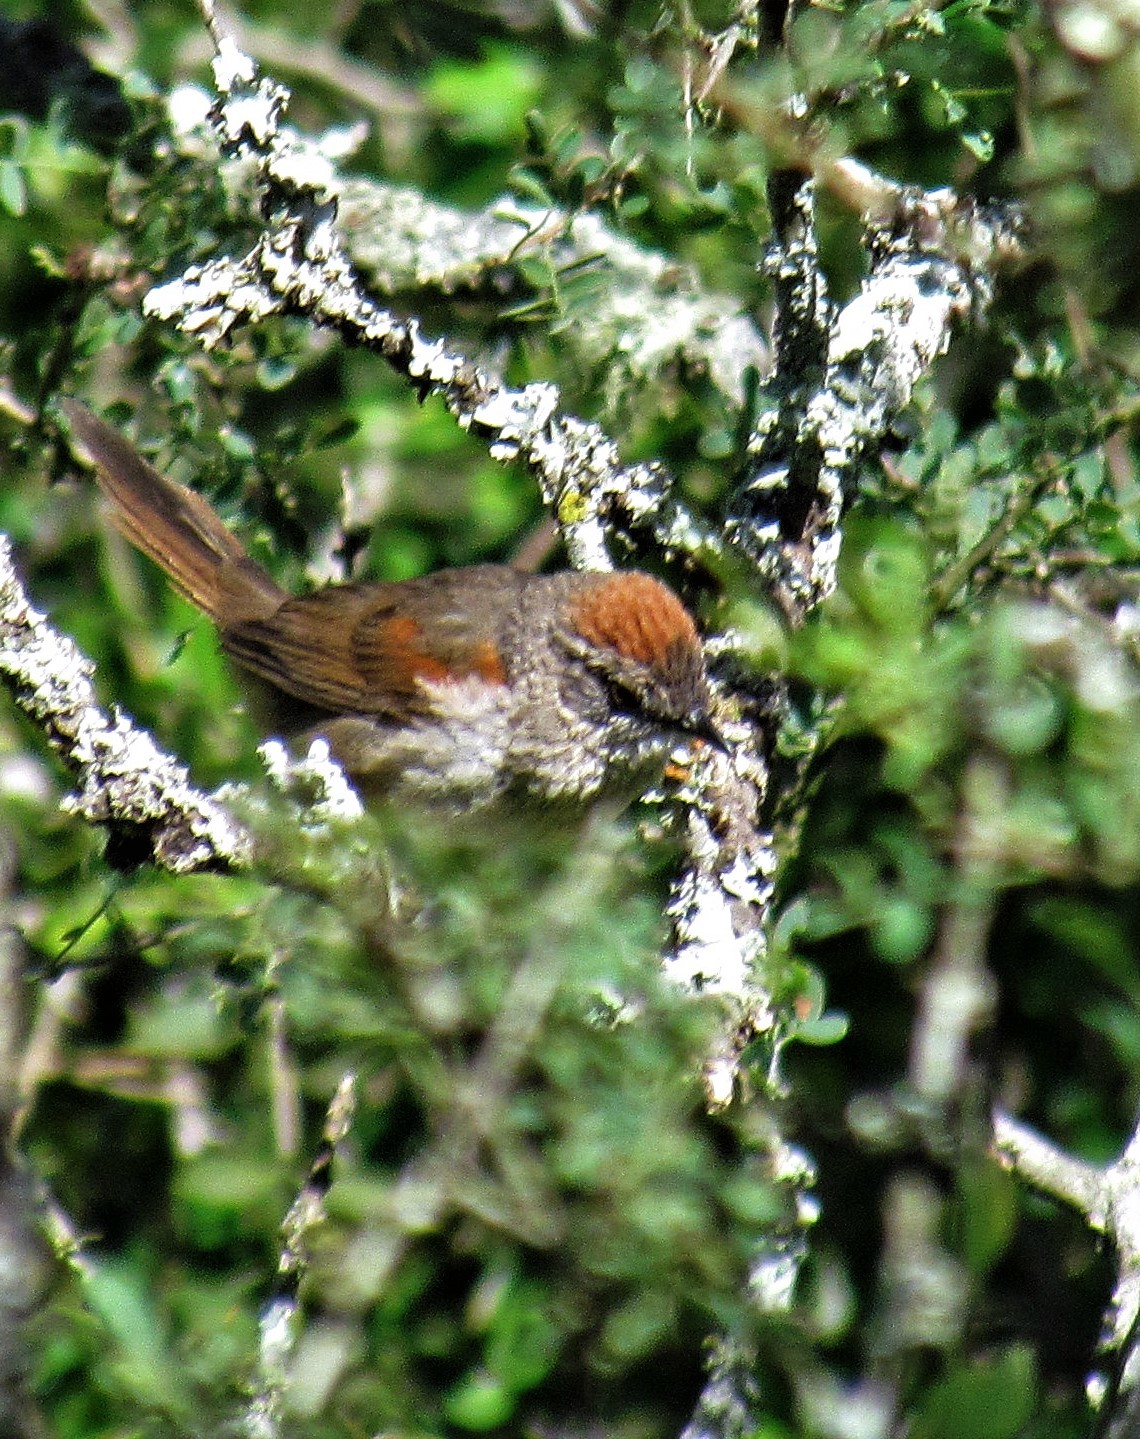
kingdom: Animalia
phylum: Chordata
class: Aves
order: Passeriformes
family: Furnariidae
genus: Synallaxis
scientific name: Synallaxis albescens
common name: Pale-breasted spinetail
